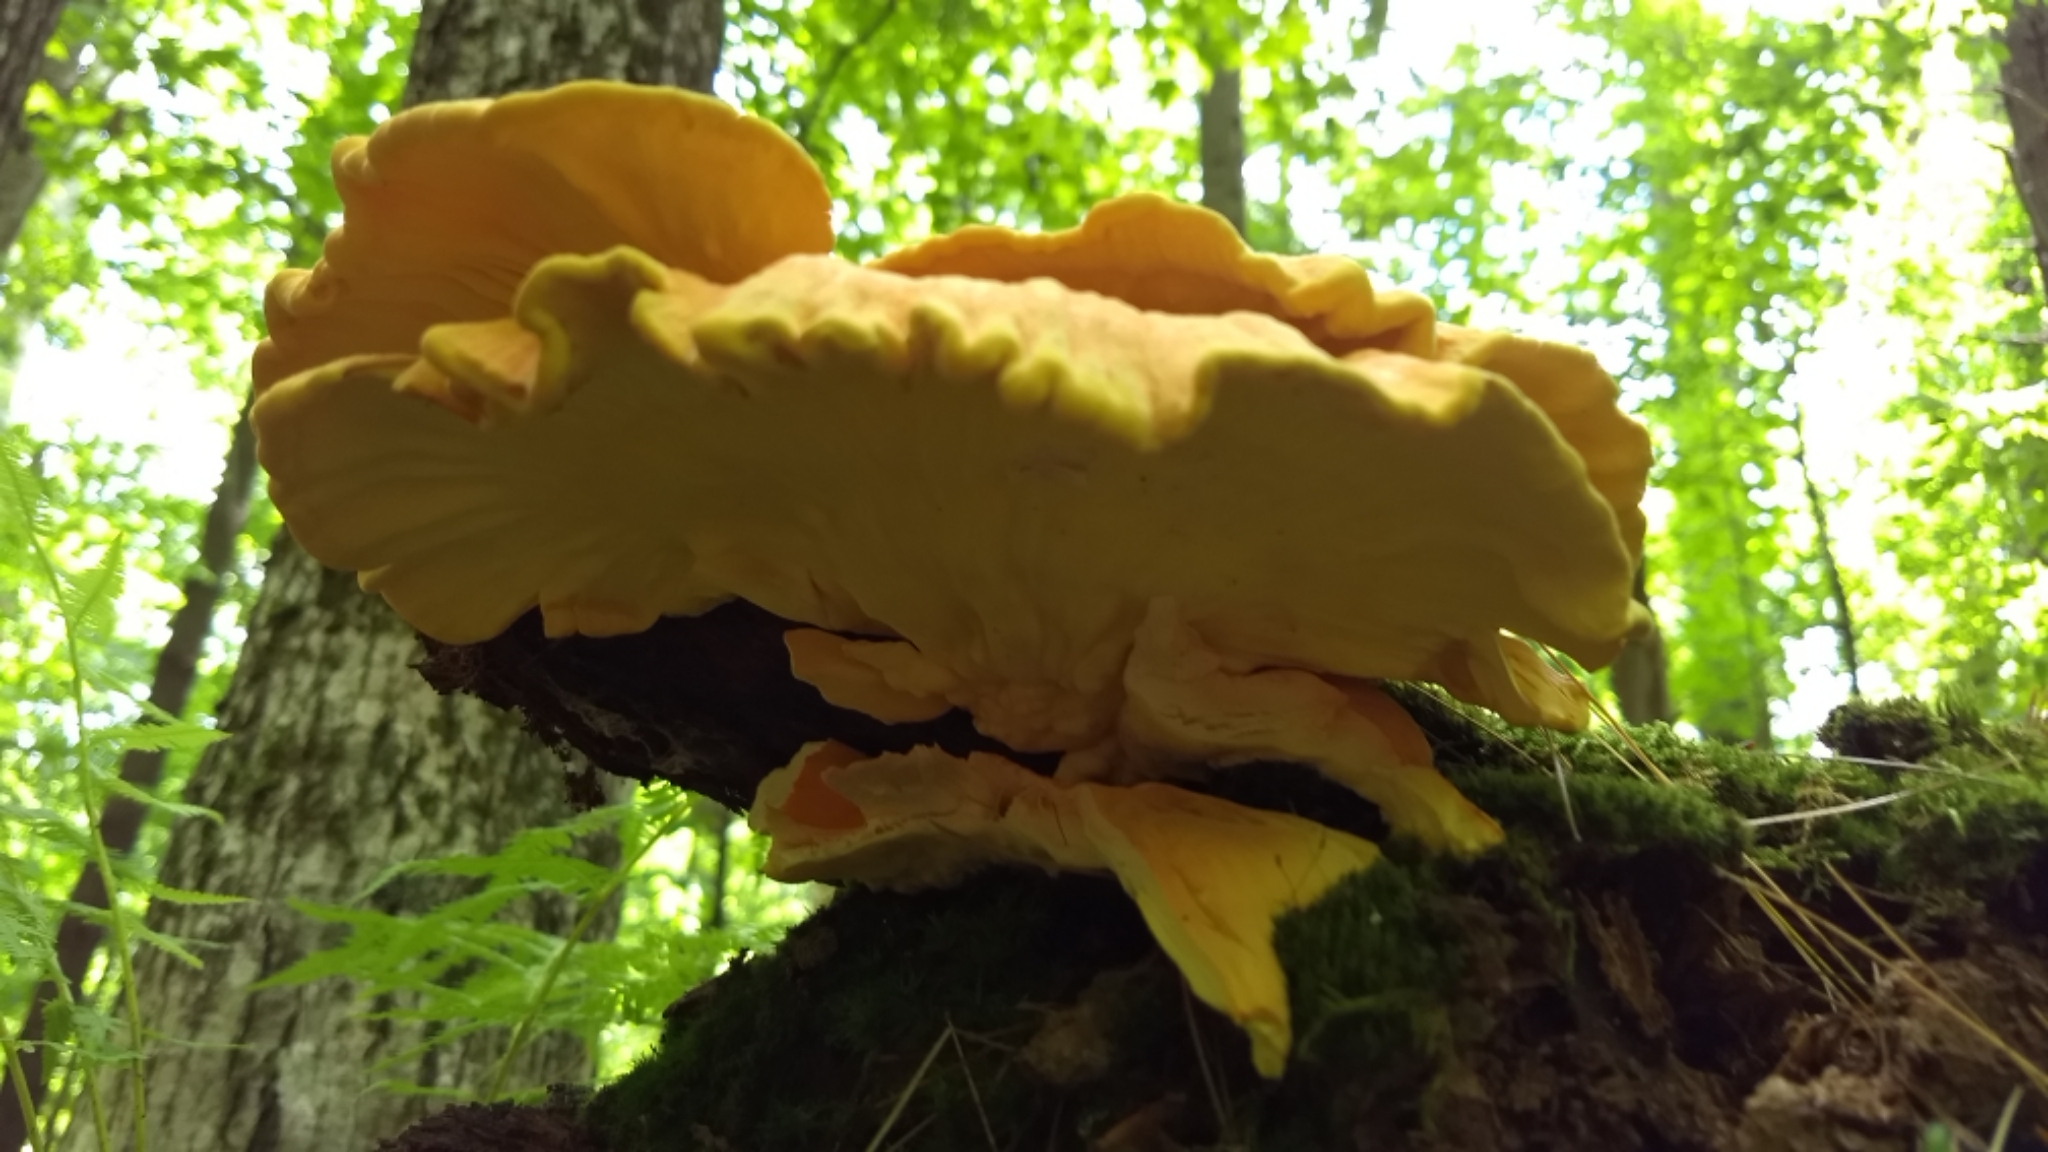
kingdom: Fungi
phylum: Basidiomycota
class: Agaricomycetes
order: Polyporales
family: Laetiporaceae
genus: Laetiporus
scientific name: Laetiporus sulphureus
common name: Chicken of the woods
